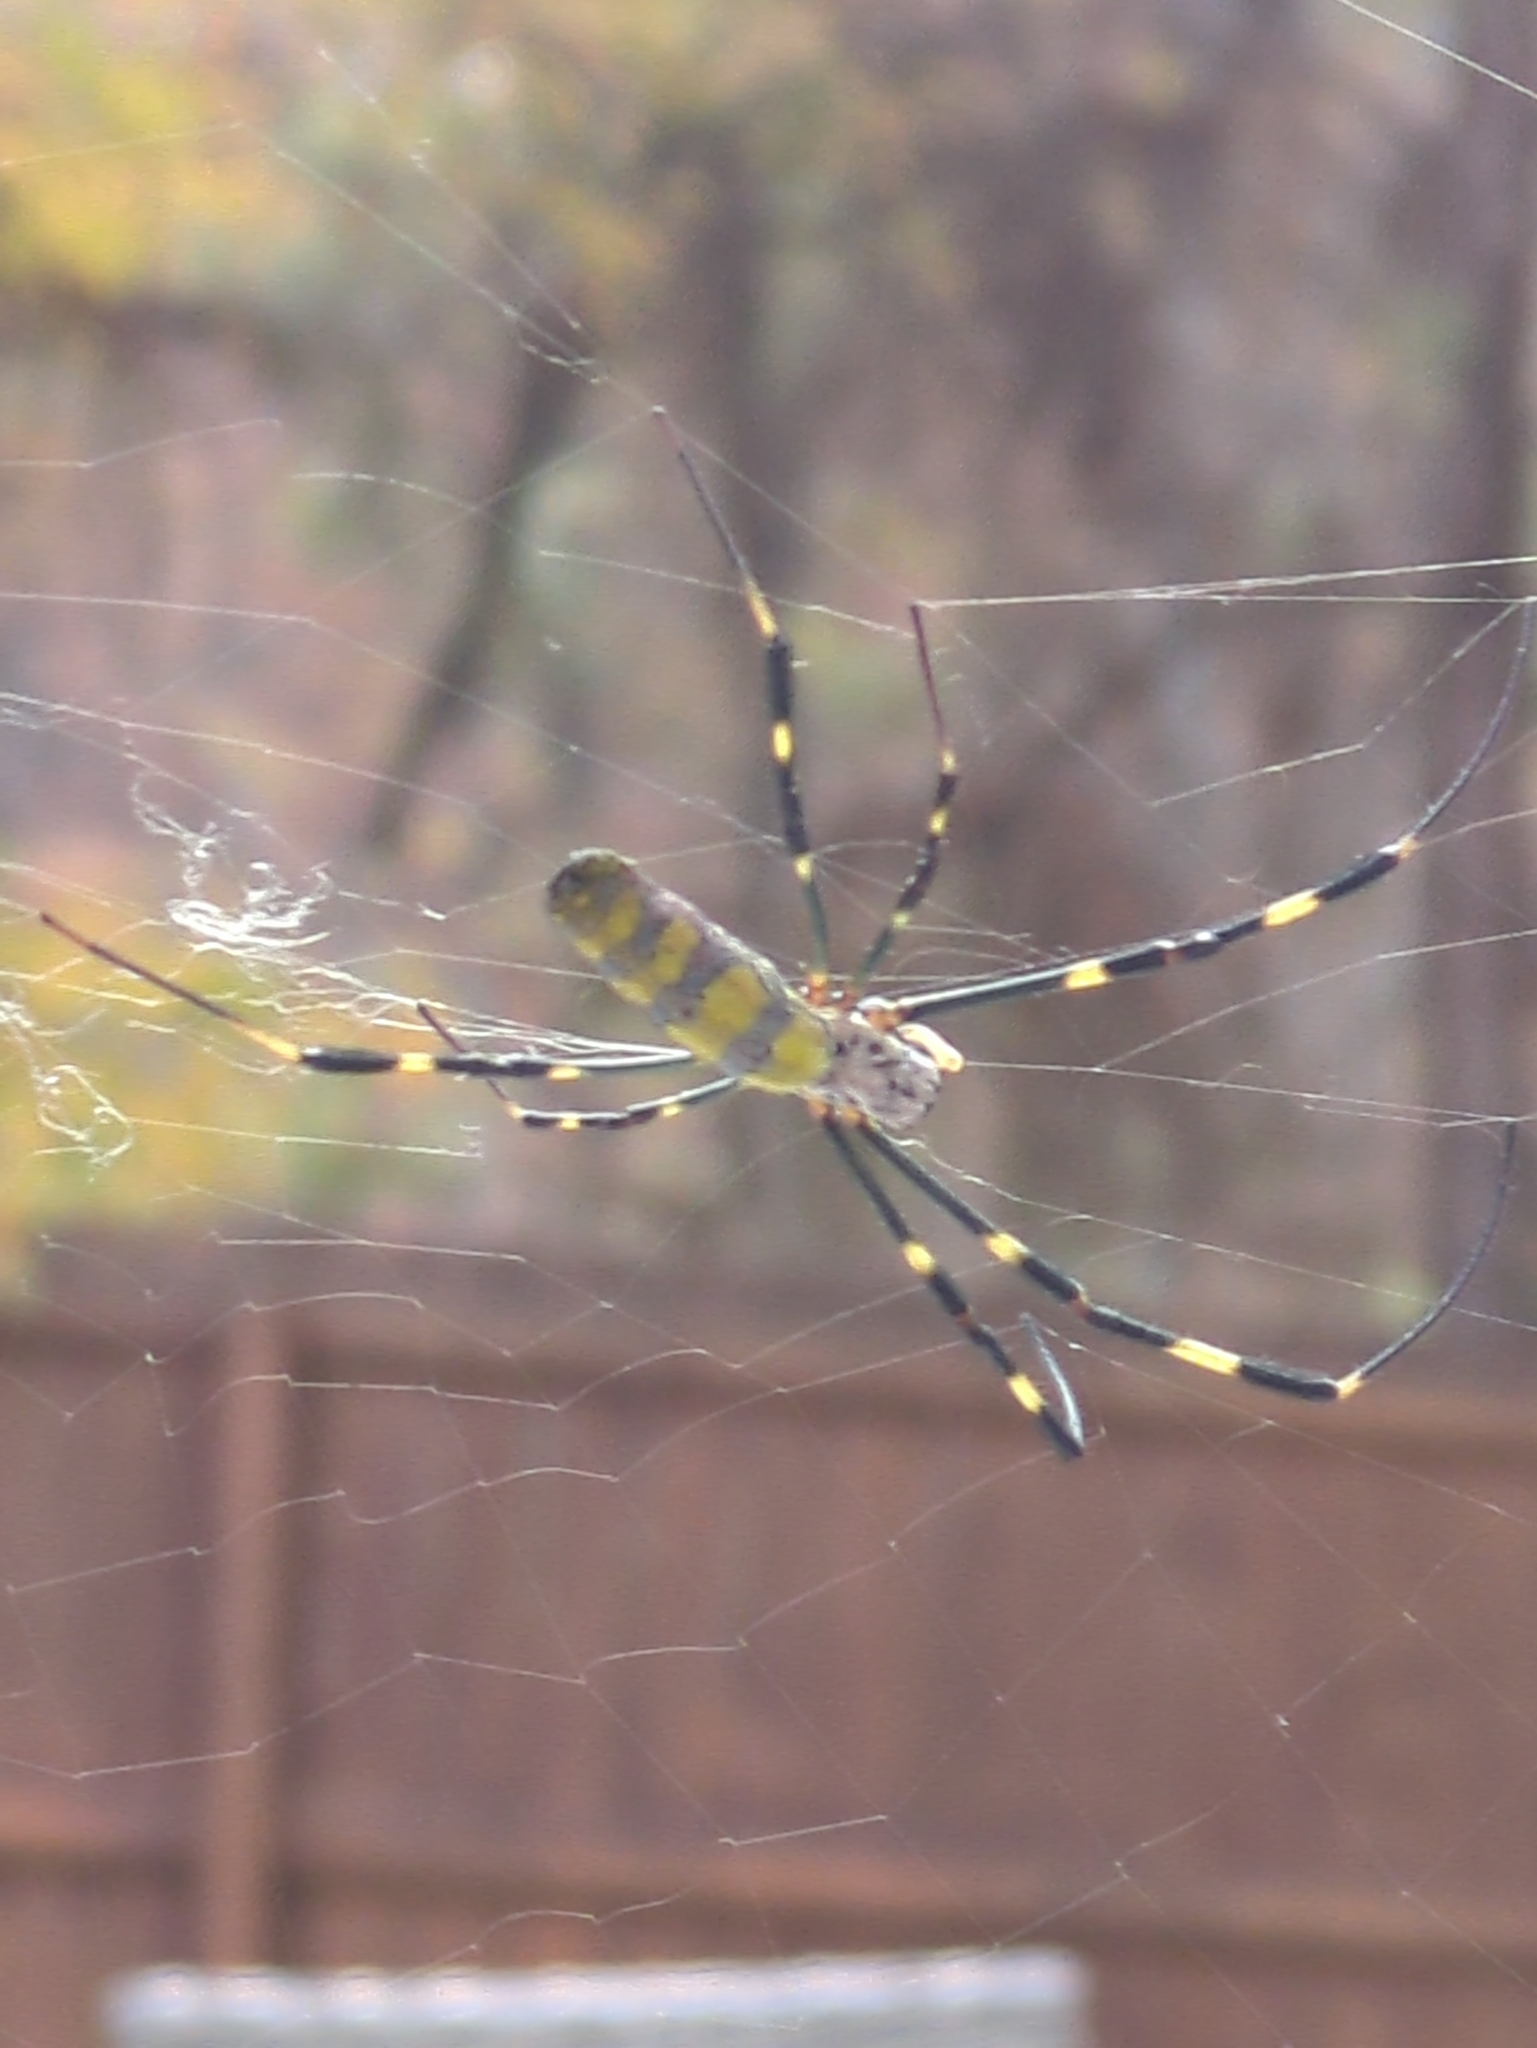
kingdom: Animalia
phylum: Arthropoda
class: Arachnida
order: Araneae
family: Araneidae
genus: Trichonephila
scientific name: Trichonephila clavata
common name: Jorō spider
